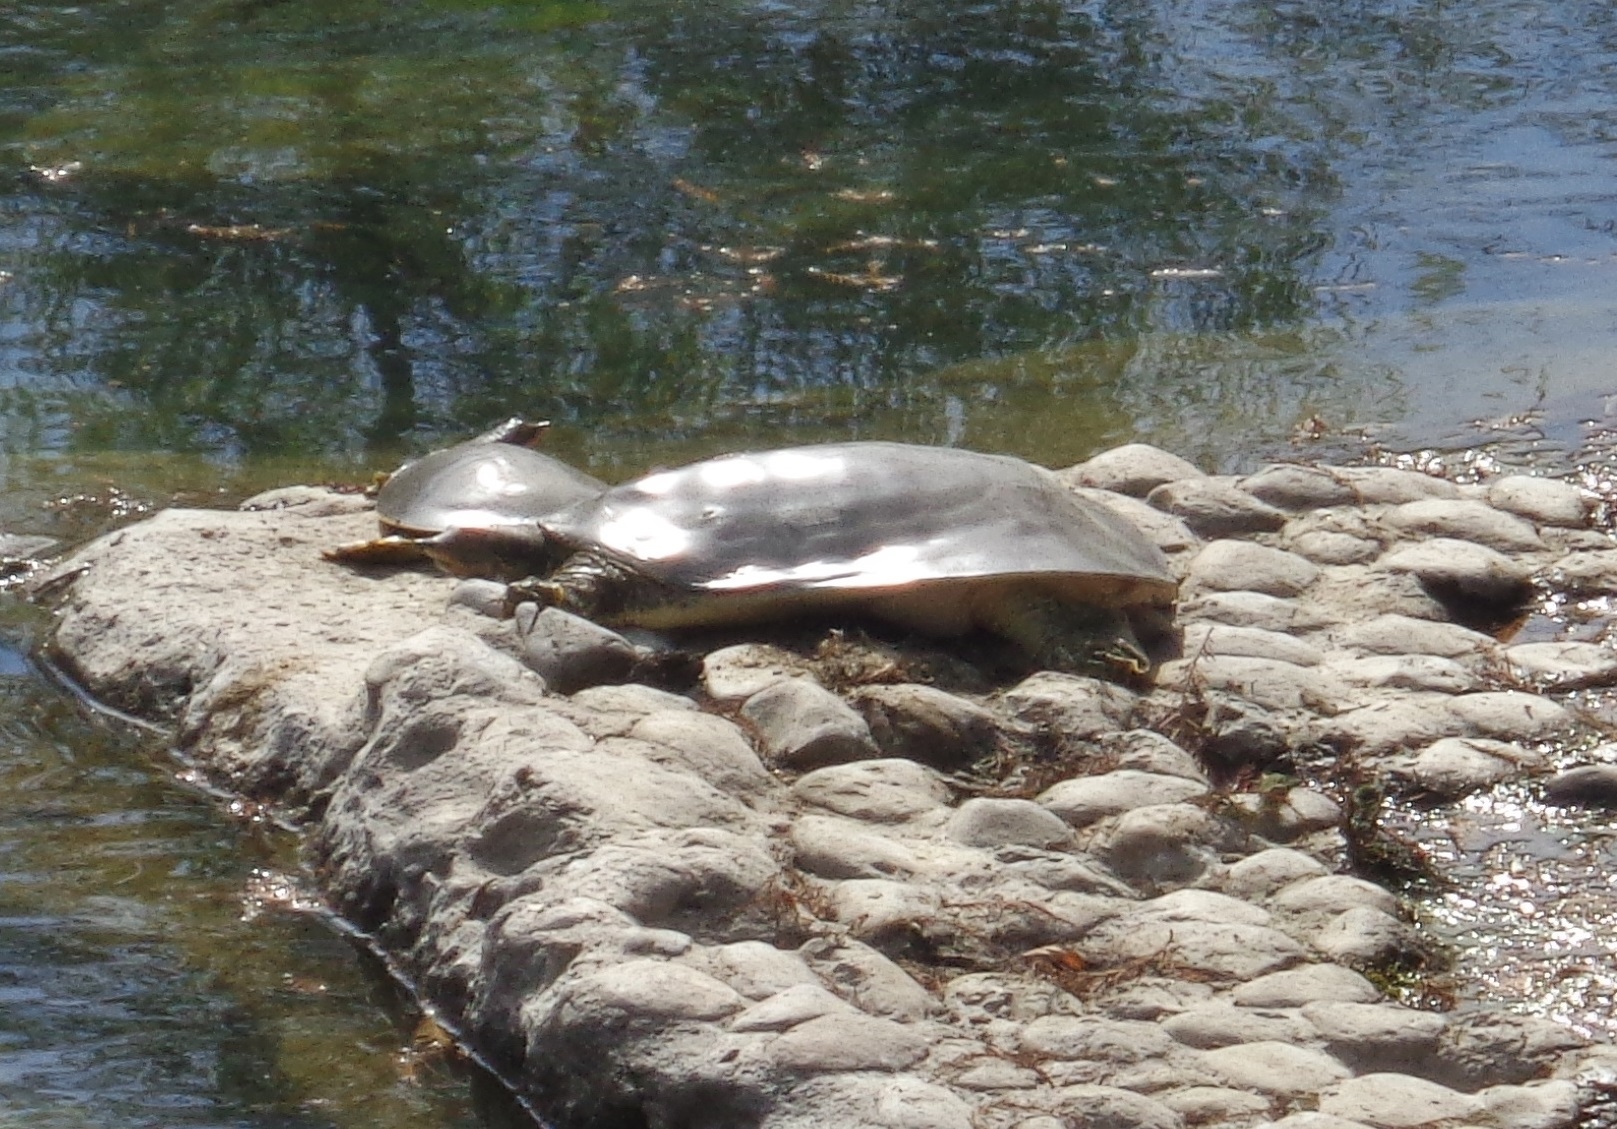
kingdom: Animalia
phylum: Chordata
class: Testudines
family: Trionychidae
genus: Apalone
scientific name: Apalone spinifera
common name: Spiny softshell turtle
